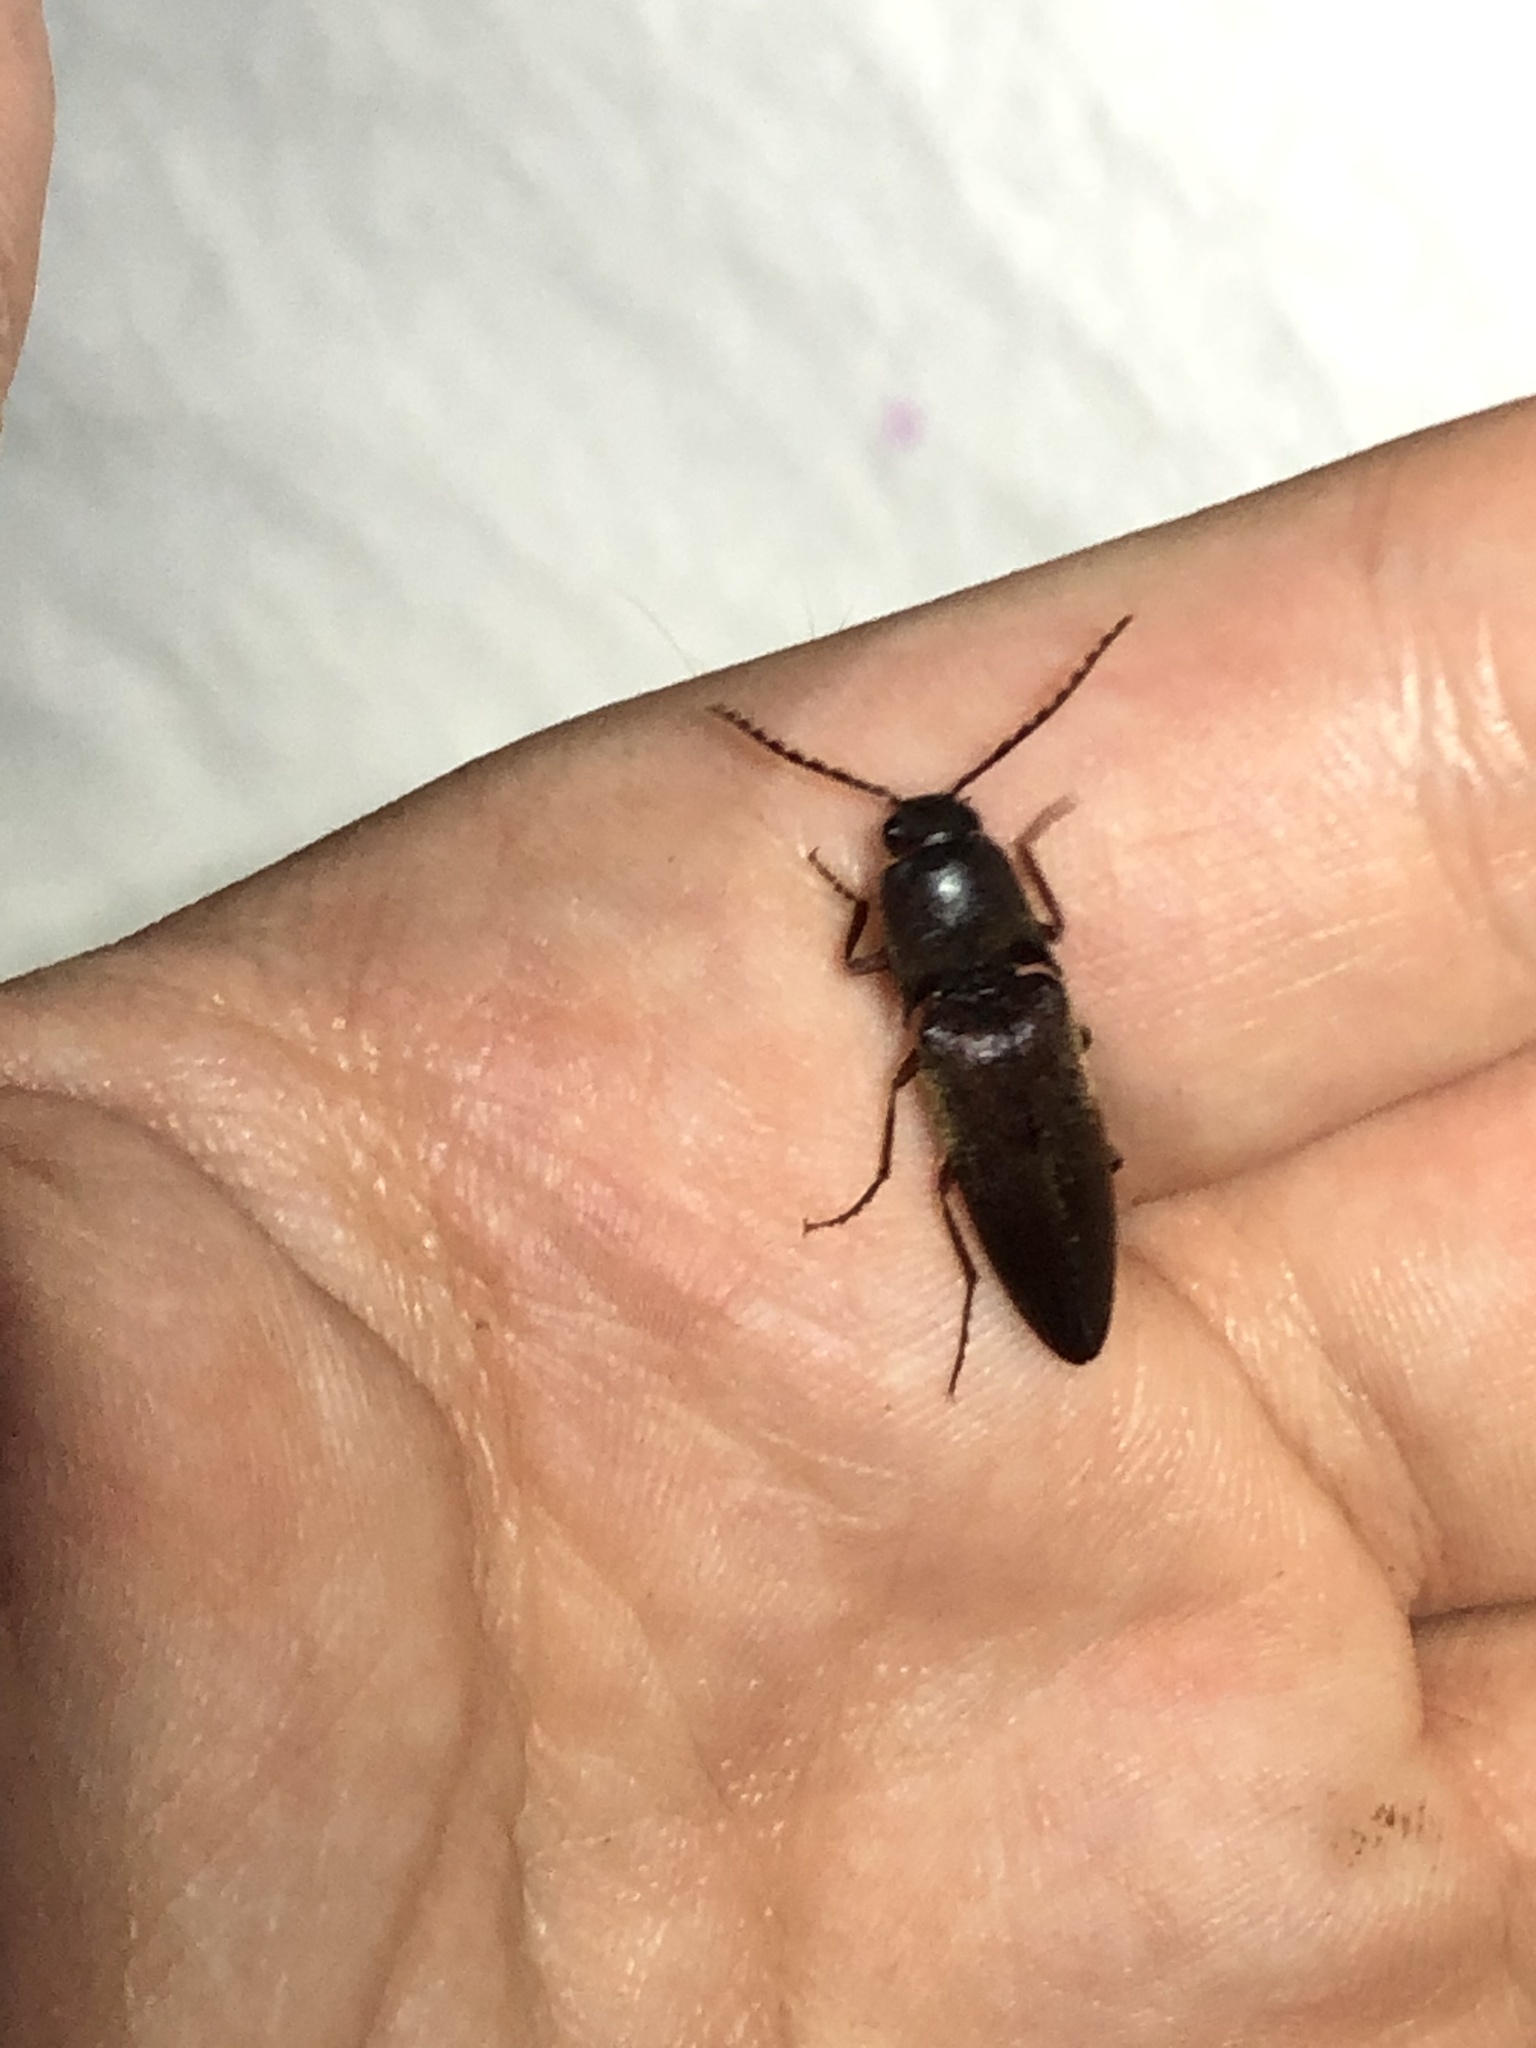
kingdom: Animalia
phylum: Arthropoda
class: Insecta
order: Coleoptera
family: Elateridae
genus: Diplostethus
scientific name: Diplostethus opacicollis
